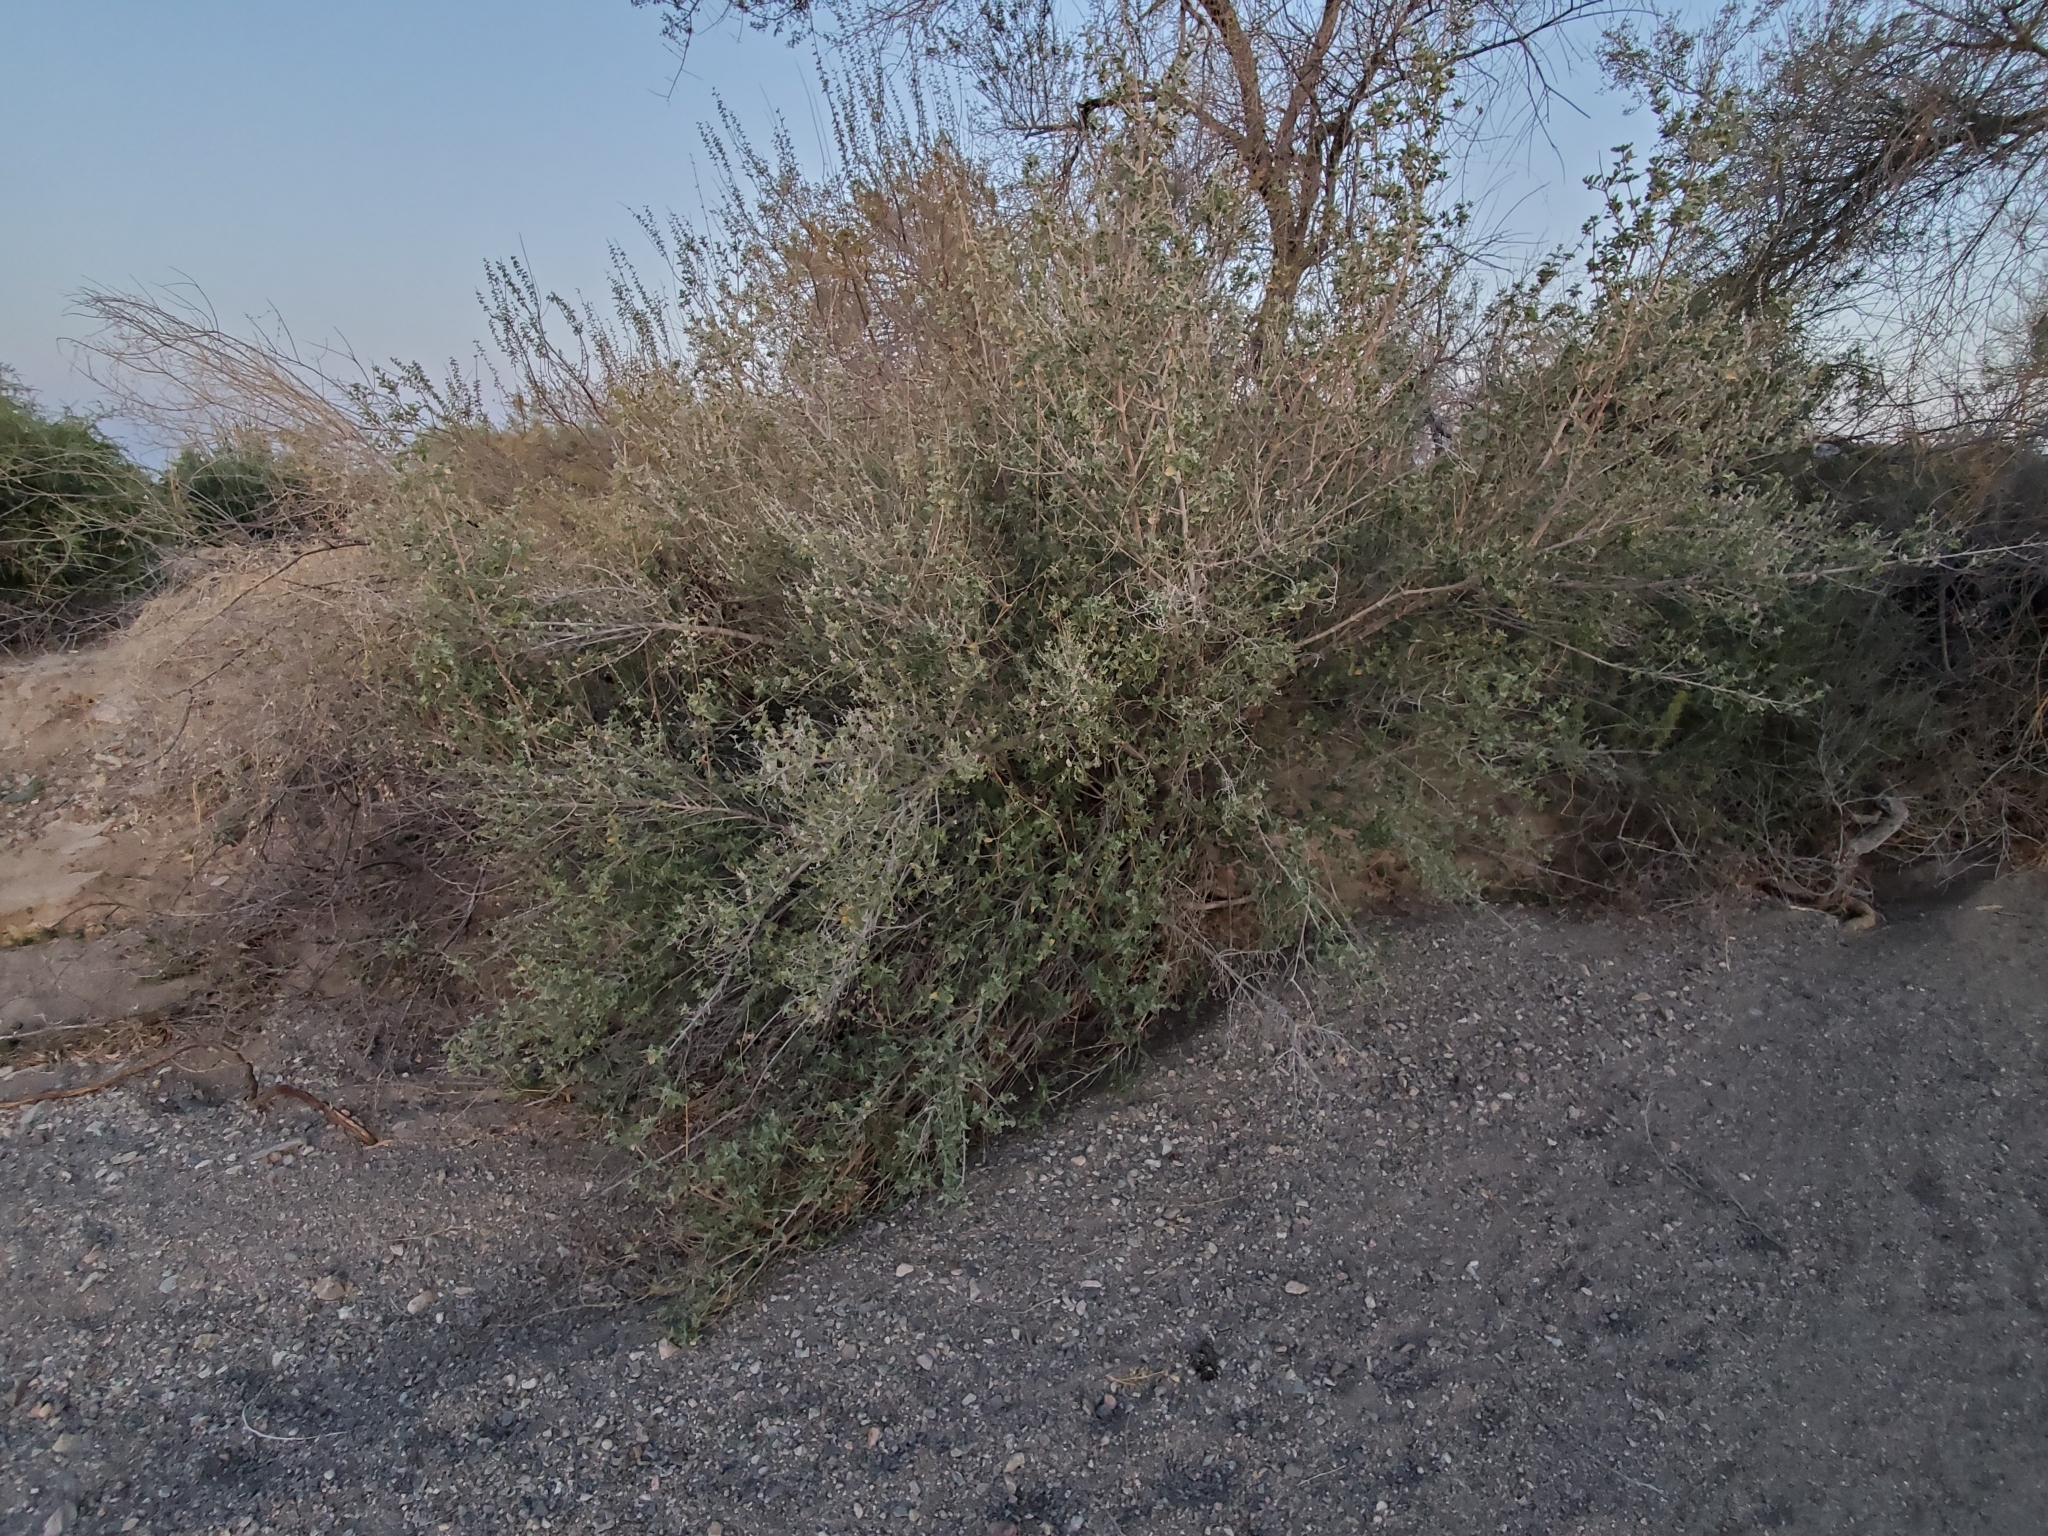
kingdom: Plantae
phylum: Tracheophyta
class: Magnoliopsida
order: Lamiales
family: Lamiaceae
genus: Condea
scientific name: Condea emoryi
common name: Chia
